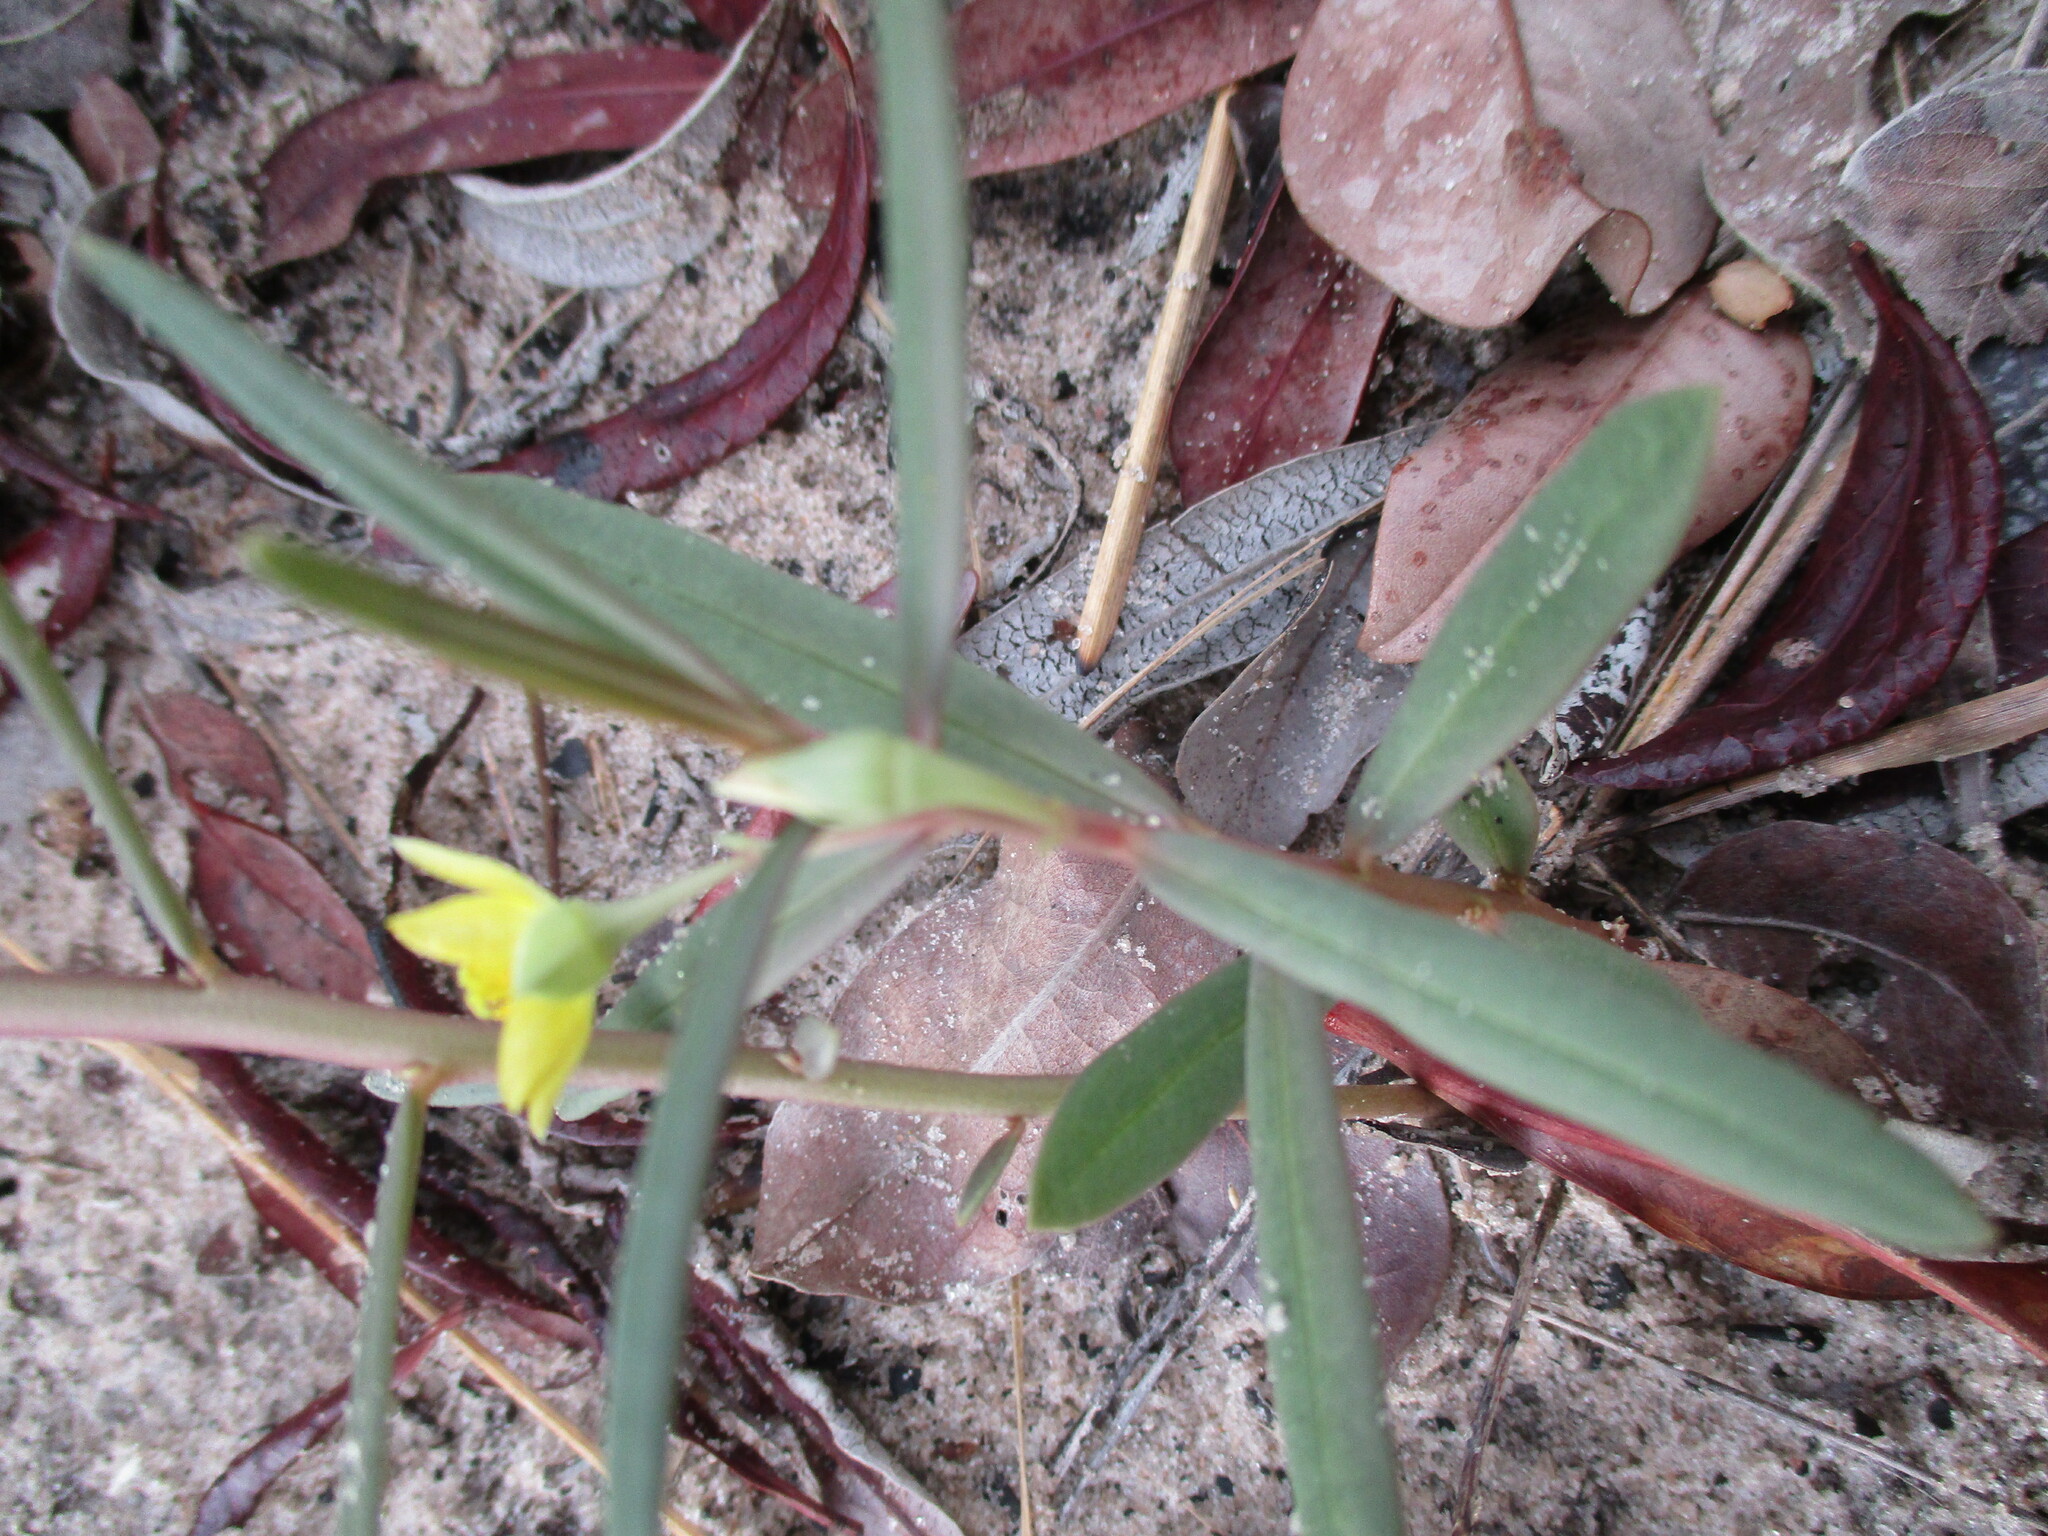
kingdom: Plantae
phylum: Tracheophyta
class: Magnoliopsida
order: Caryophyllales
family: Talinaceae
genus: Talinum
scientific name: Talinum caffrum
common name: Flameflower
